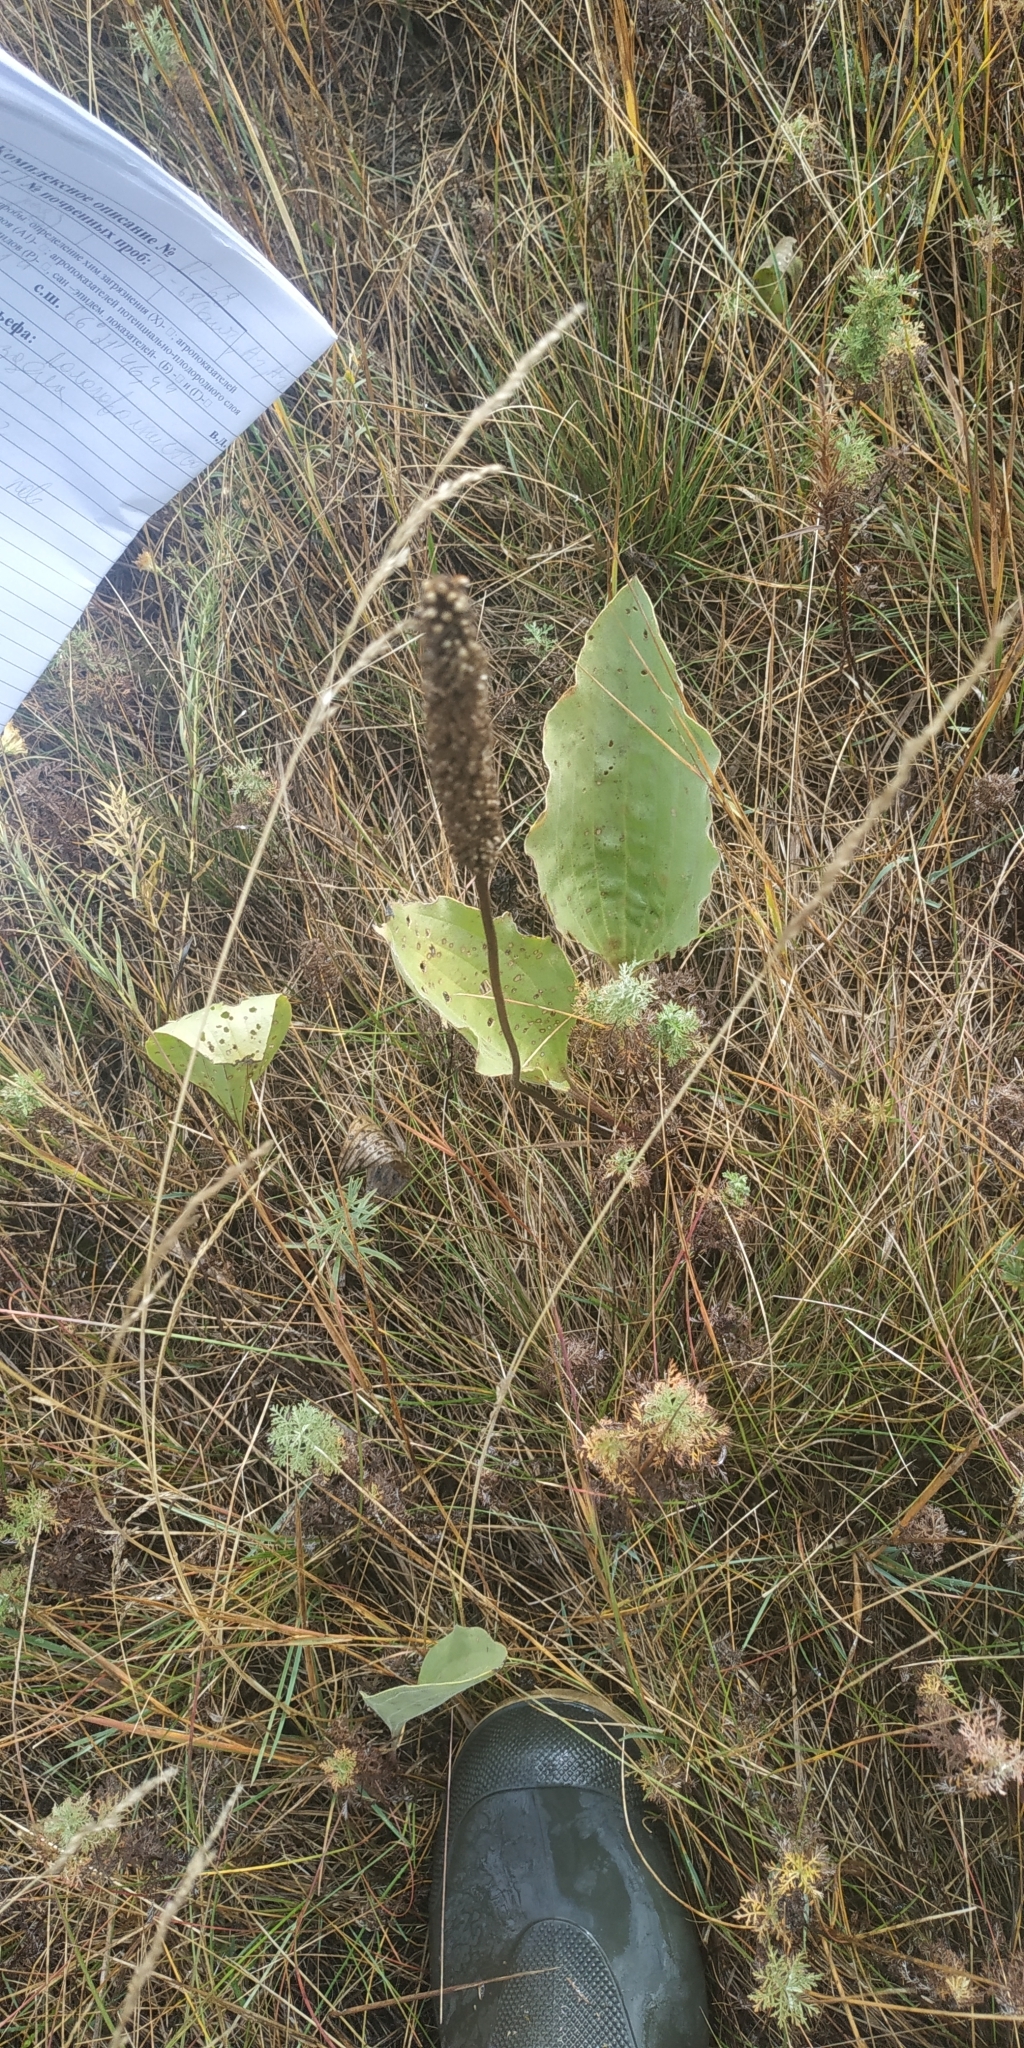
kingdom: Plantae
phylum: Tracheophyta
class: Magnoliopsida
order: Lamiales
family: Plantaginaceae
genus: Plantago
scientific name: Plantago maxima
